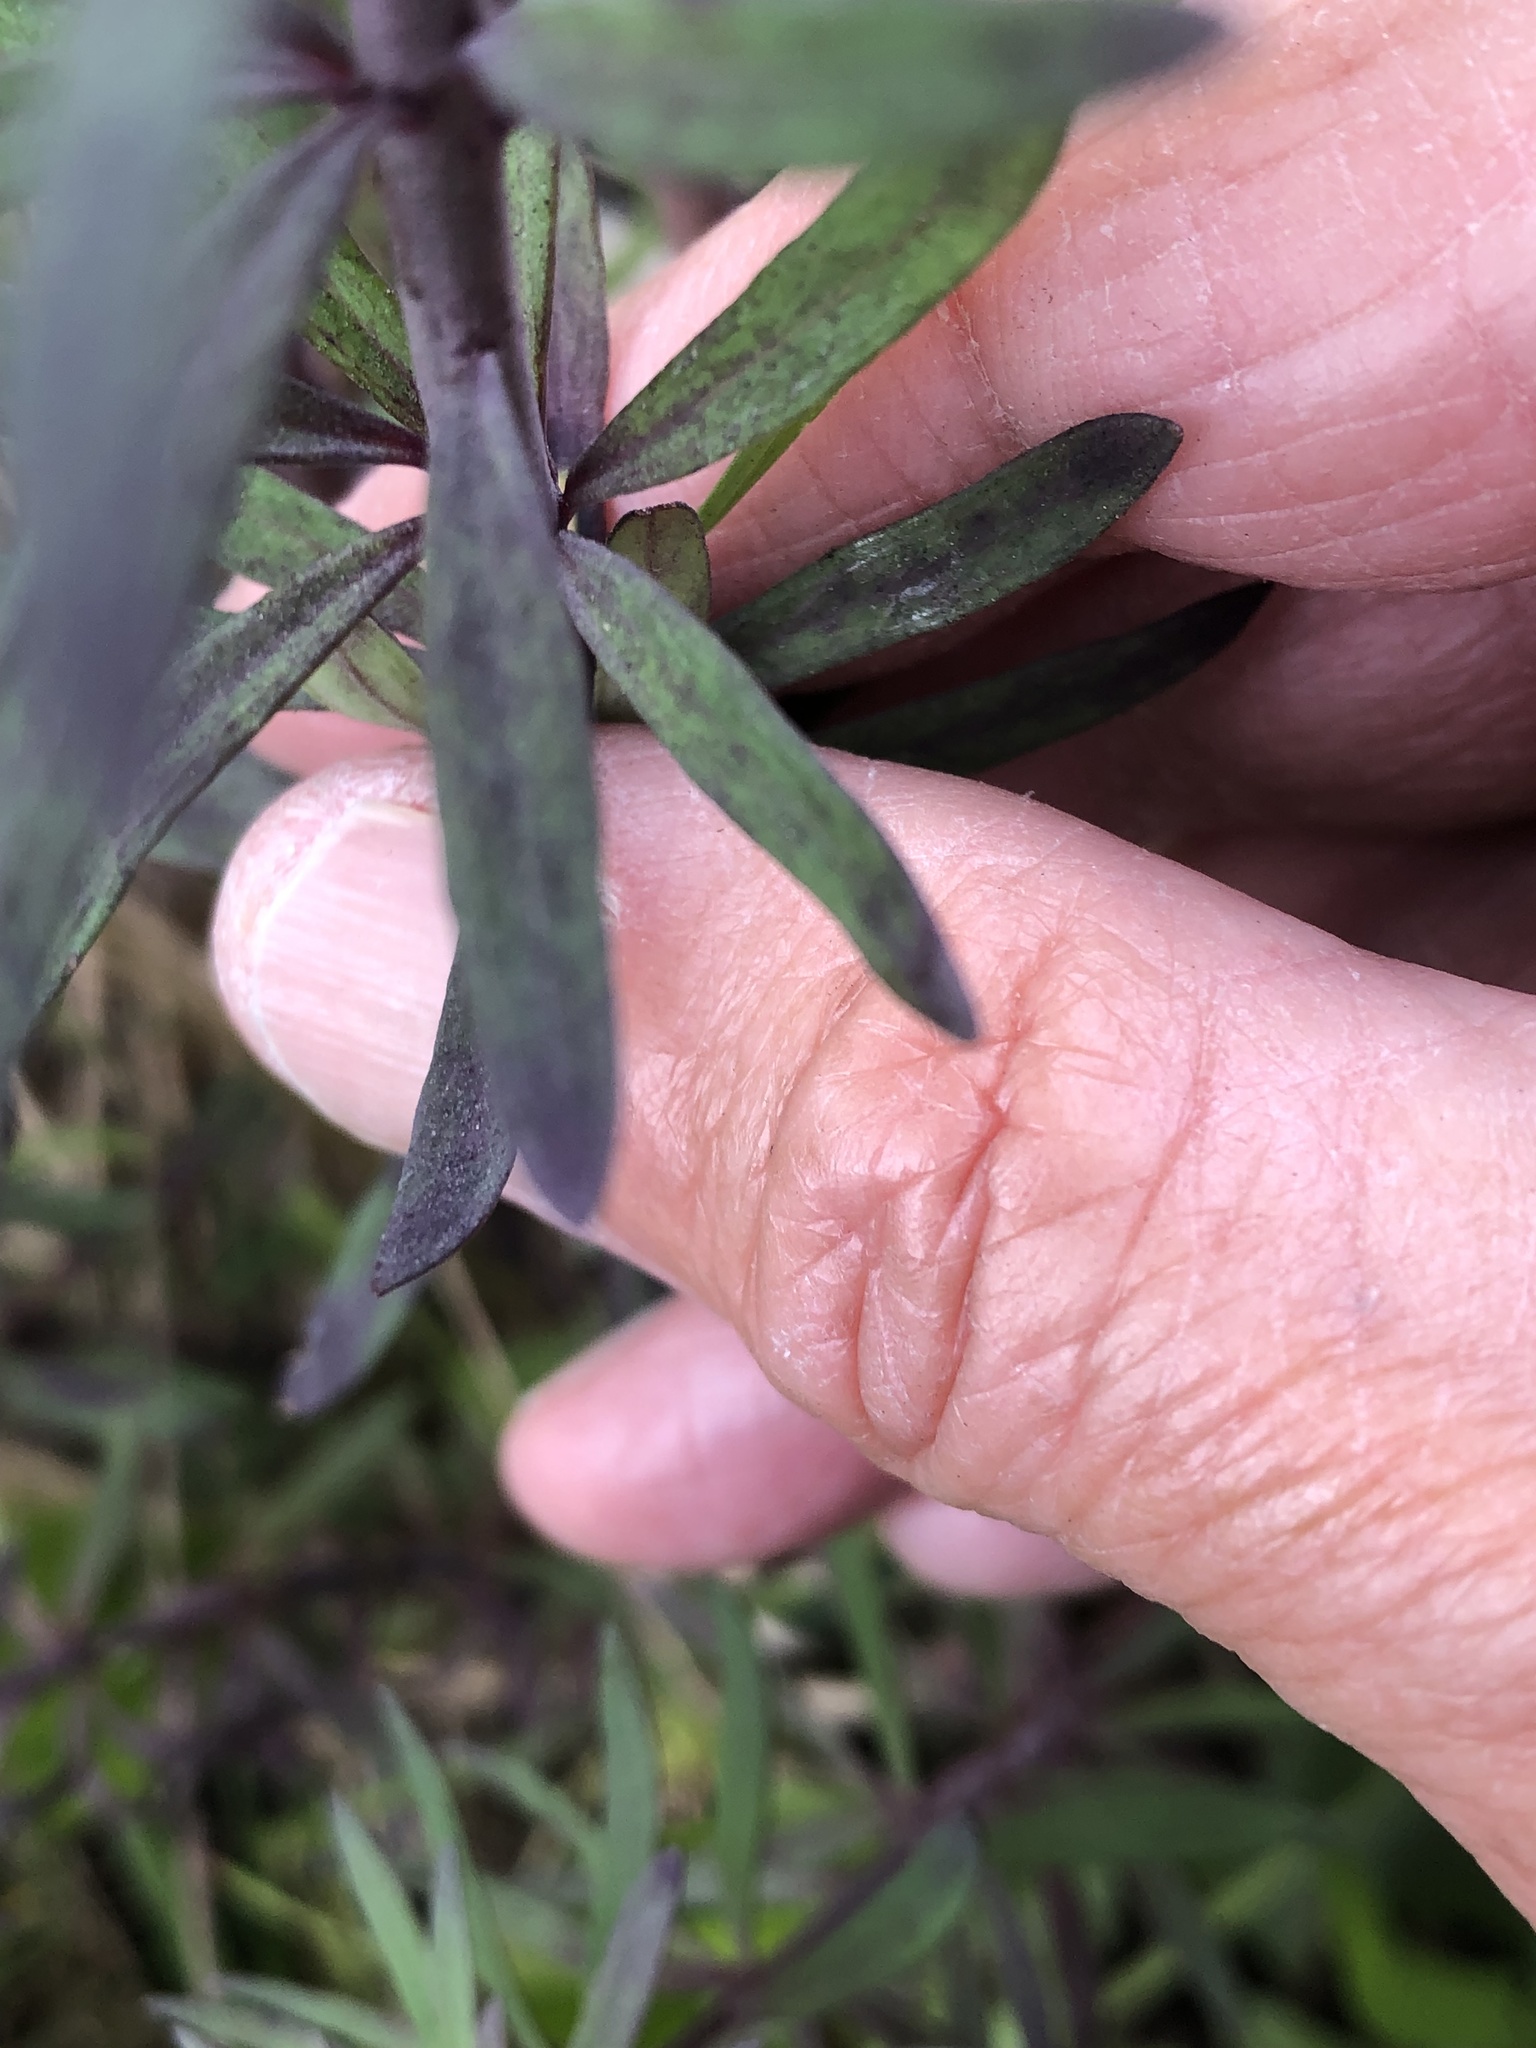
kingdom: Plantae
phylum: Tracheophyta
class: Magnoliopsida
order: Lamiales
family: Plantaginaceae
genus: Linaria
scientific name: Linaria purpurea
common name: Purple toadflax
